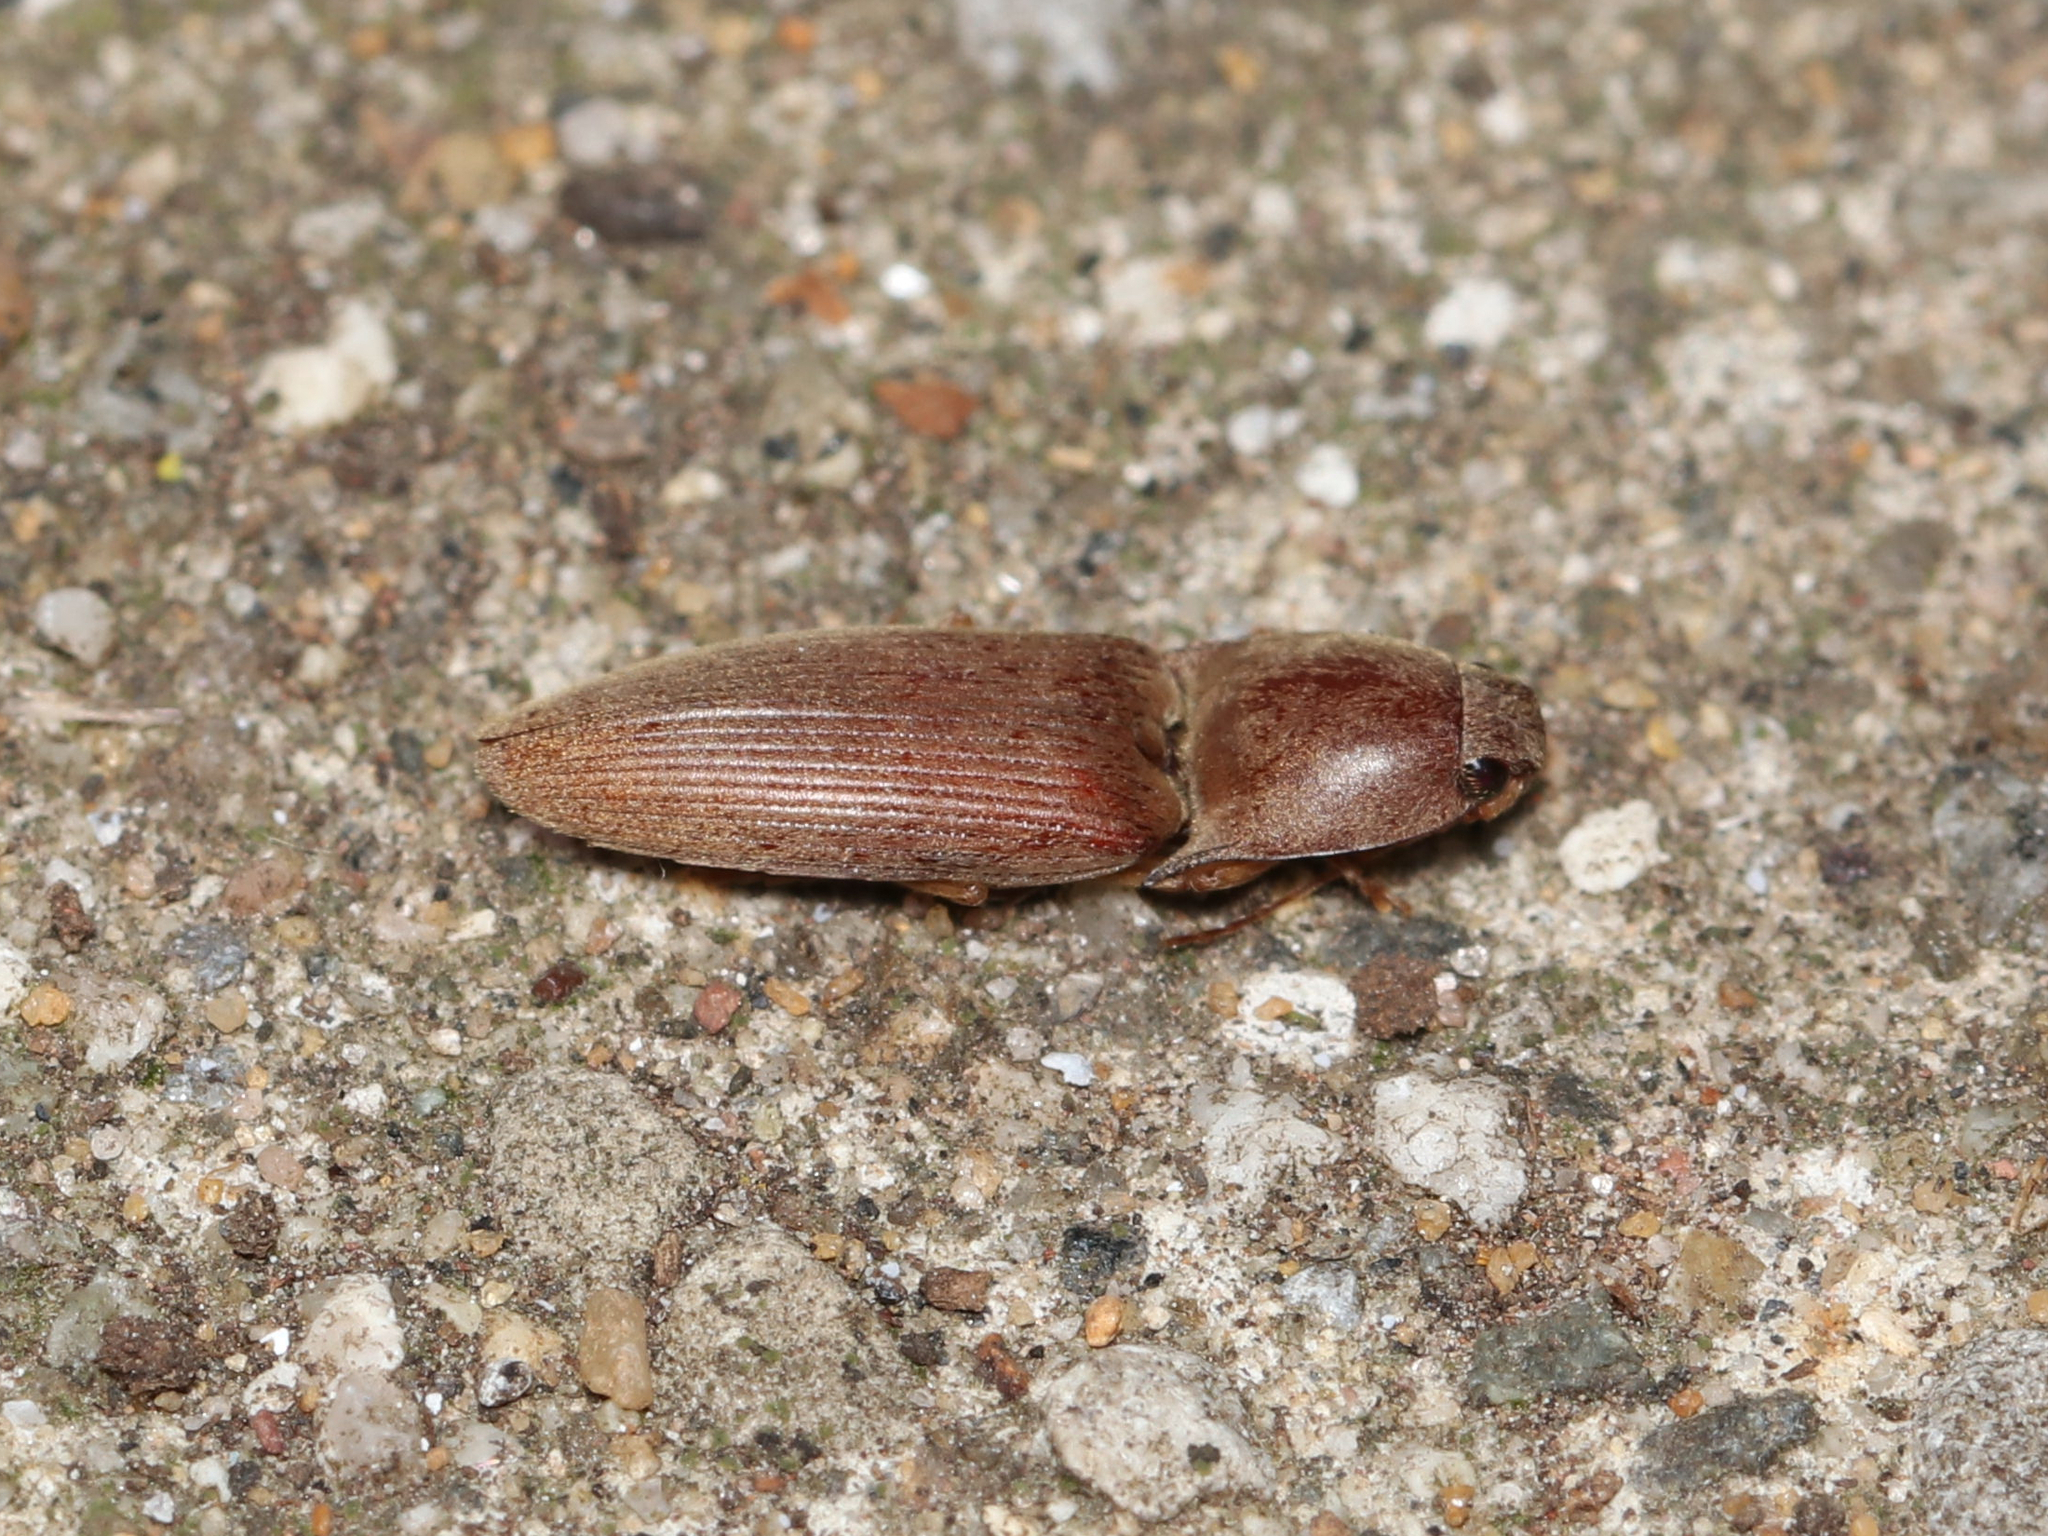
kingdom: Animalia
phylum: Arthropoda
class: Insecta
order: Coleoptera
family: Elateridae
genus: Monocrepidius
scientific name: Monocrepidius lividus
